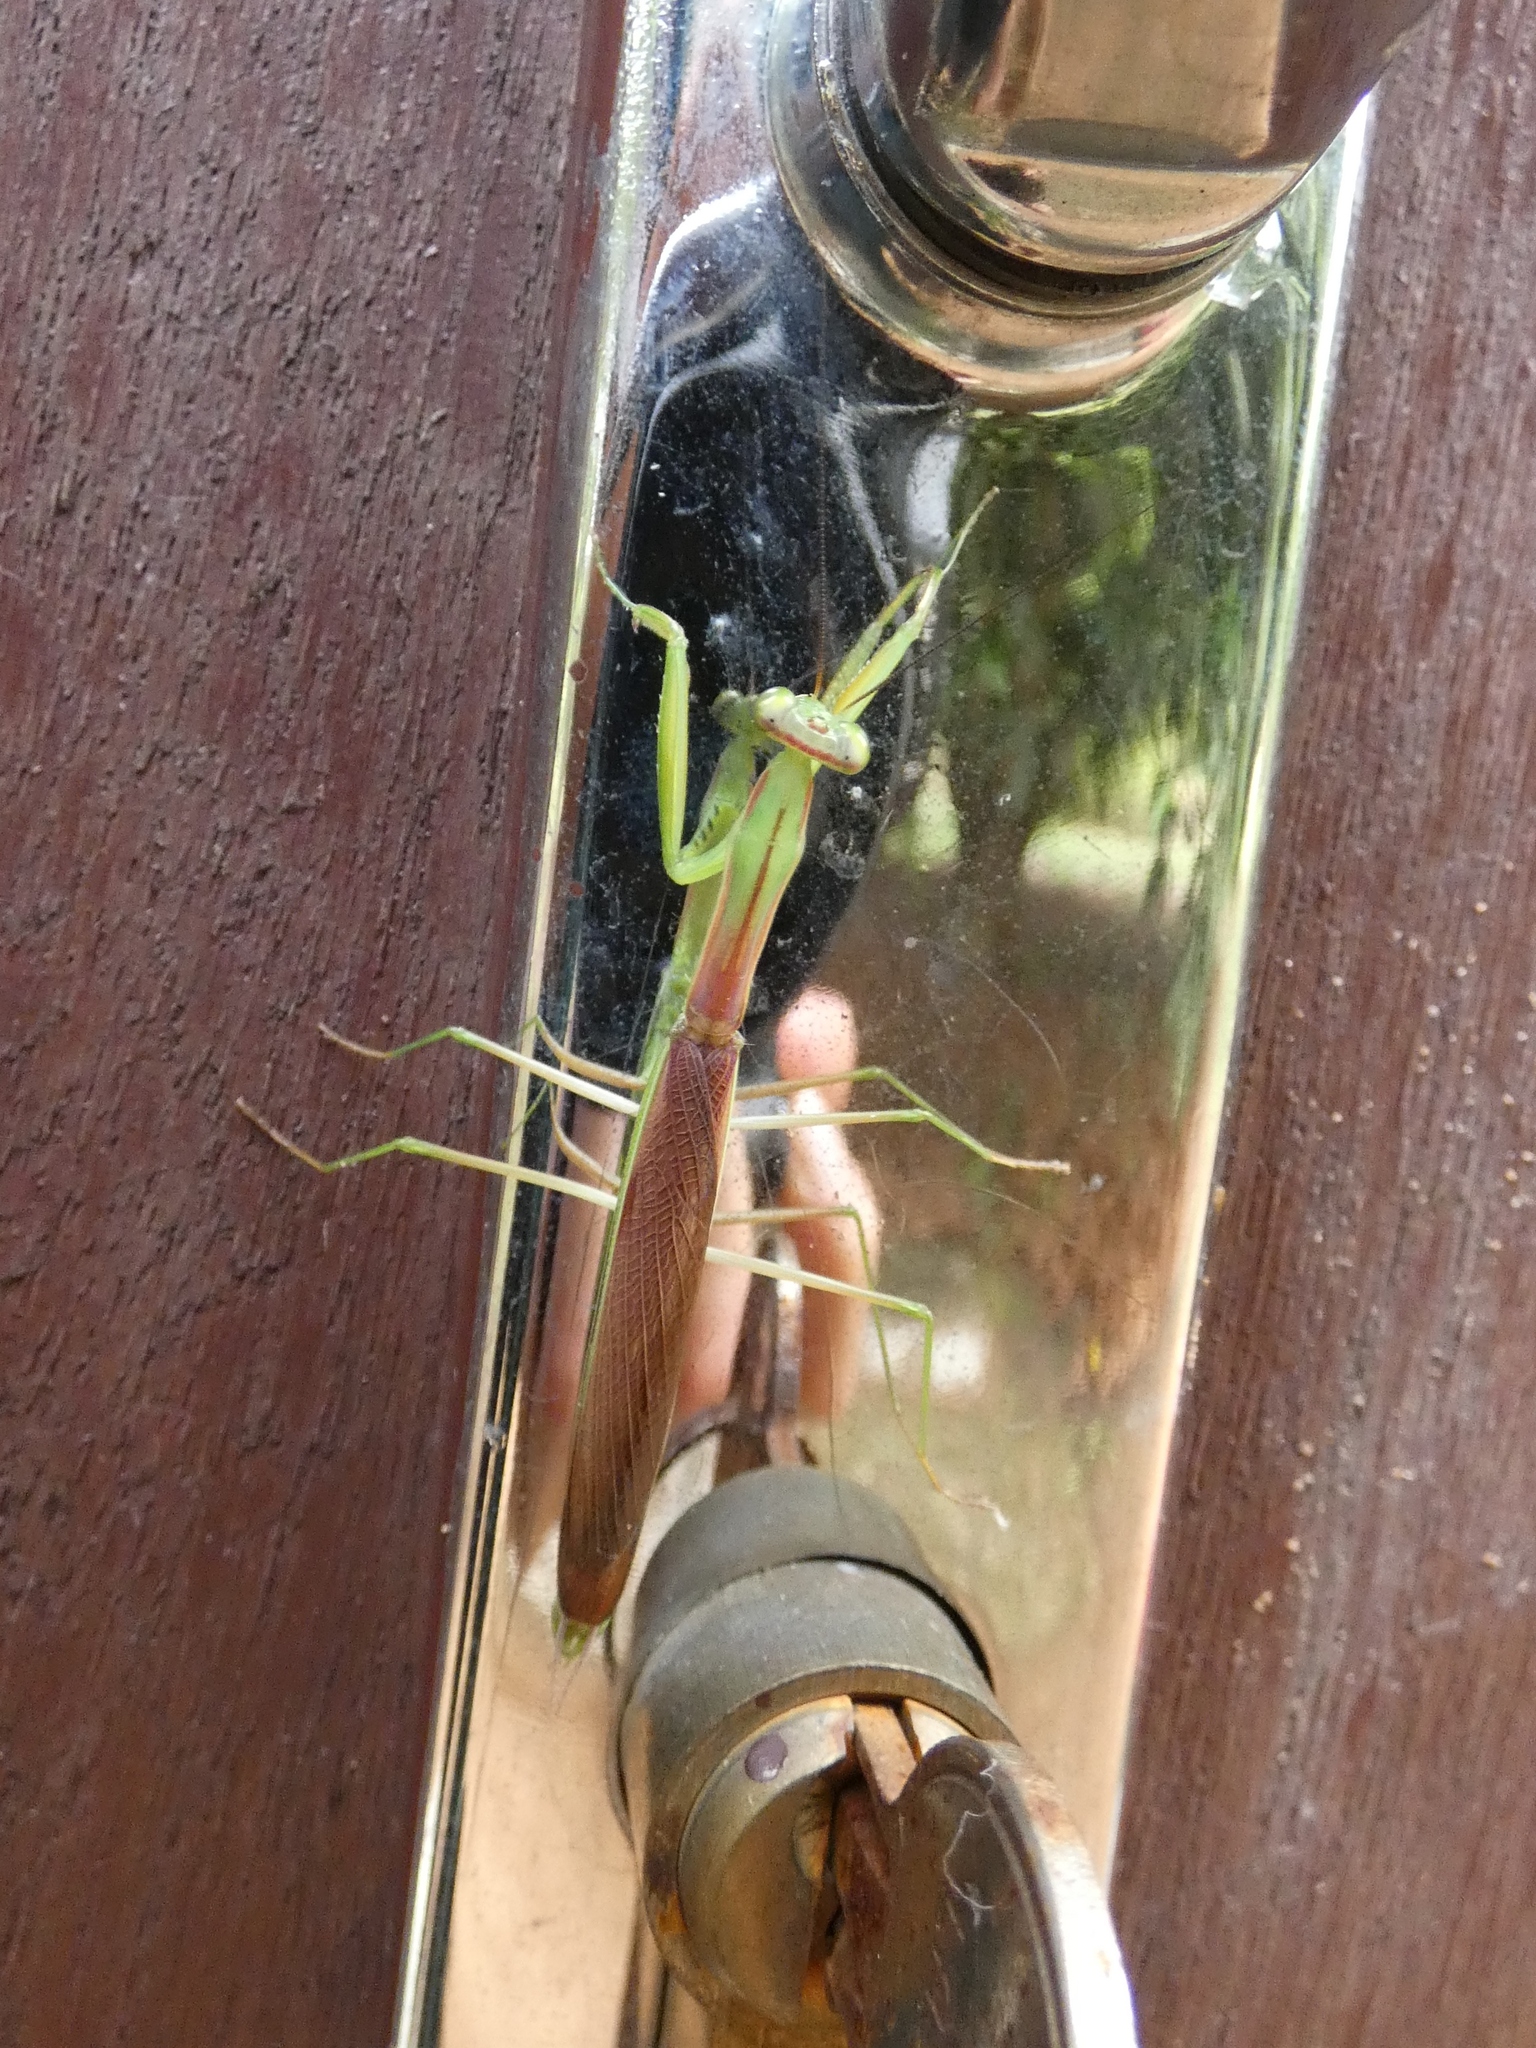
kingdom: Animalia
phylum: Arthropoda
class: Insecta
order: Mantodea
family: Mantidae
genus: Paramantis
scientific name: Paramantis prasina
